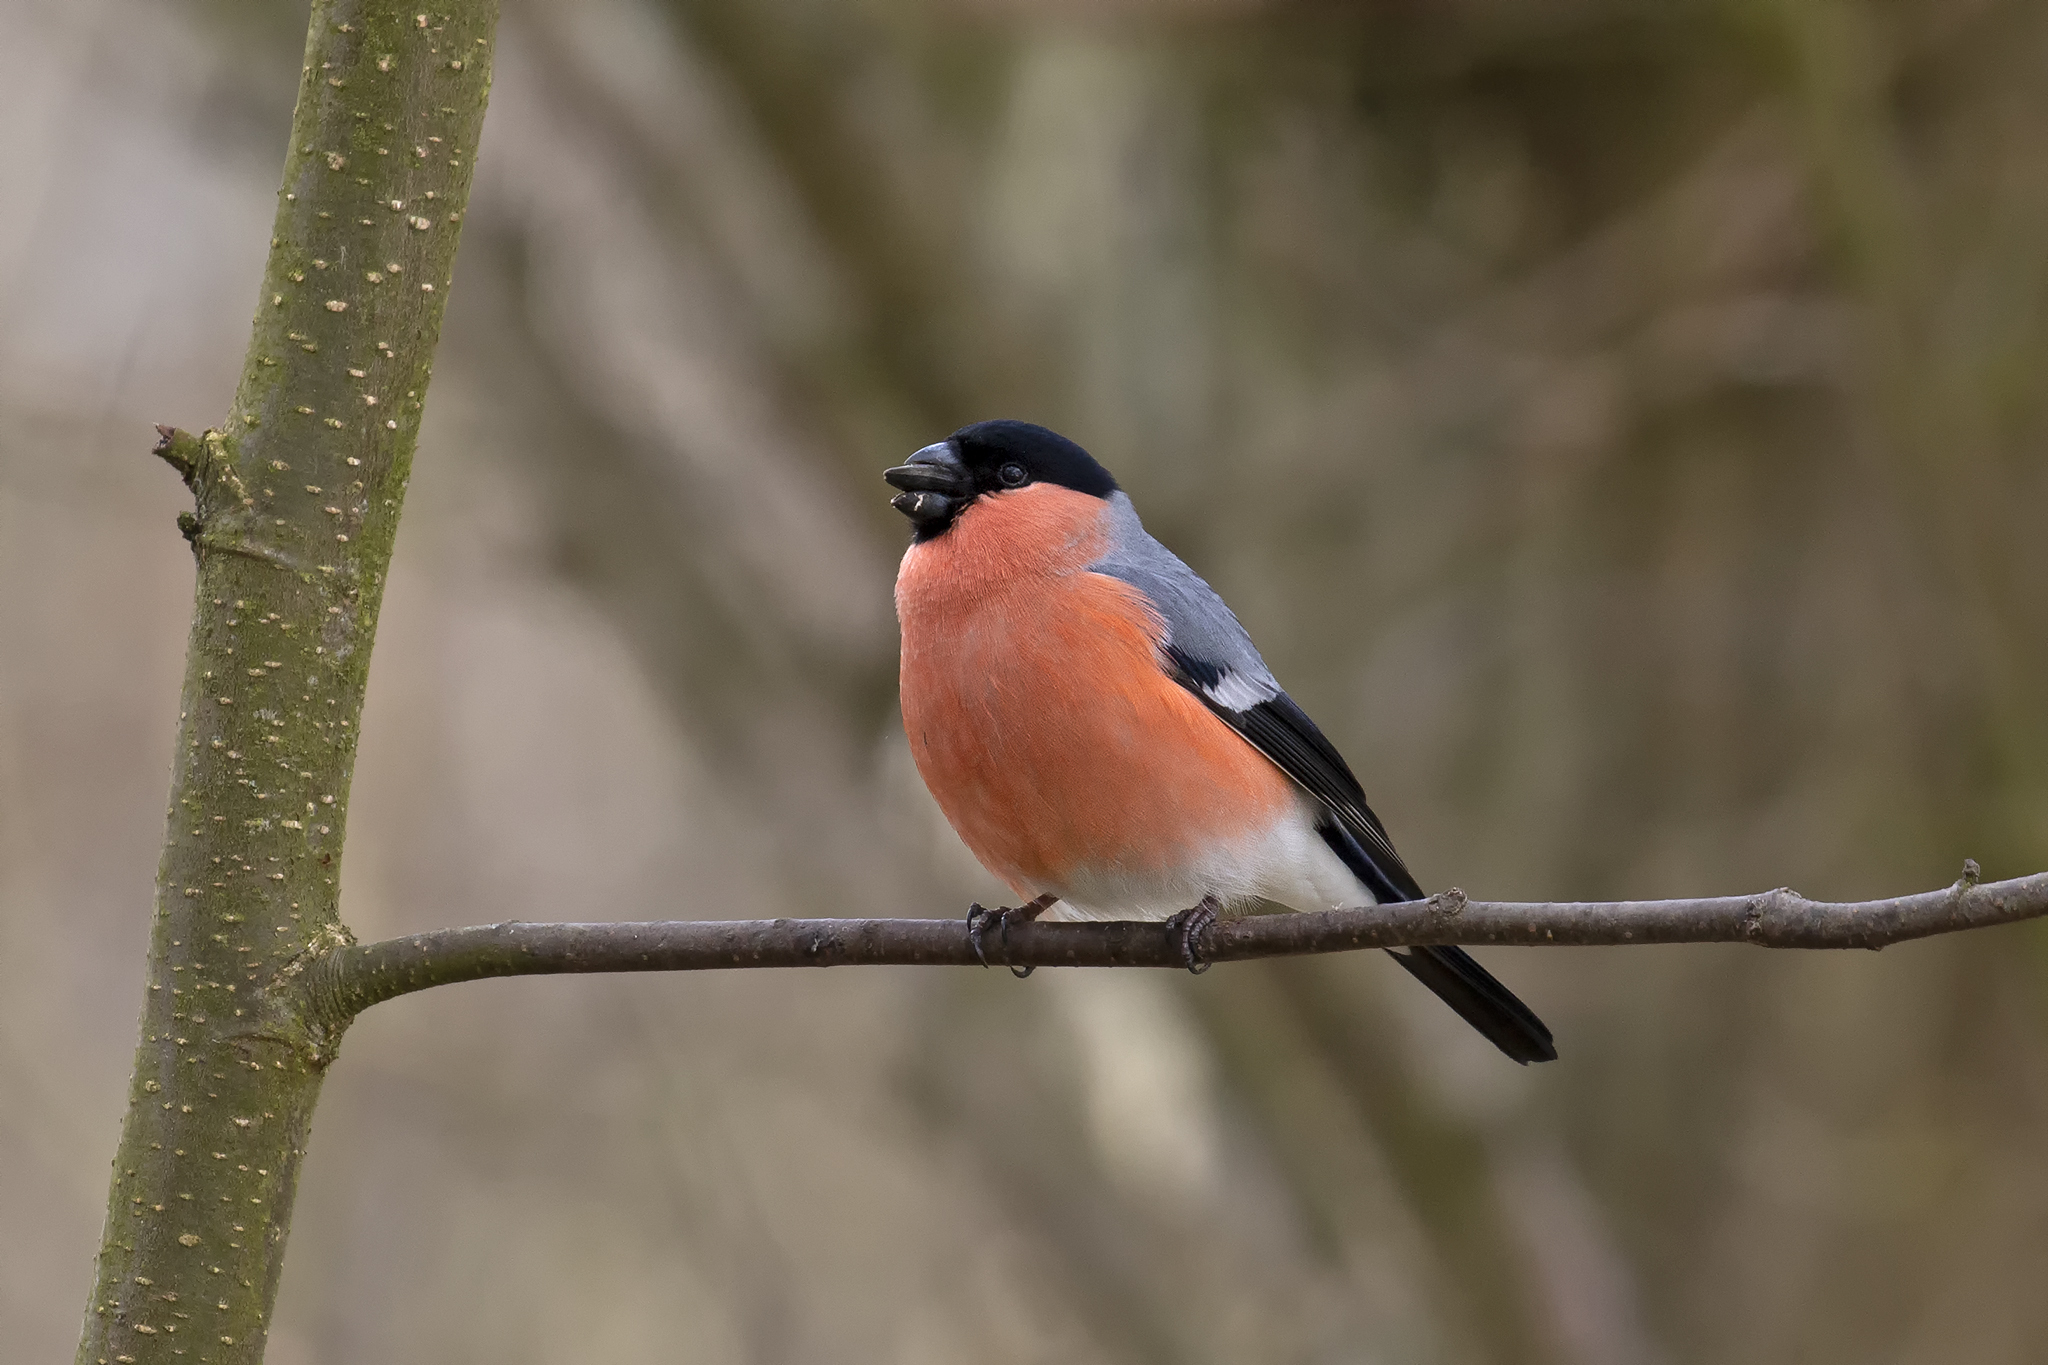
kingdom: Animalia
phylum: Chordata
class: Aves
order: Passeriformes
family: Fringillidae
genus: Pyrrhula
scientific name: Pyrrhula pyrrhula
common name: Eurasian bullfinch
